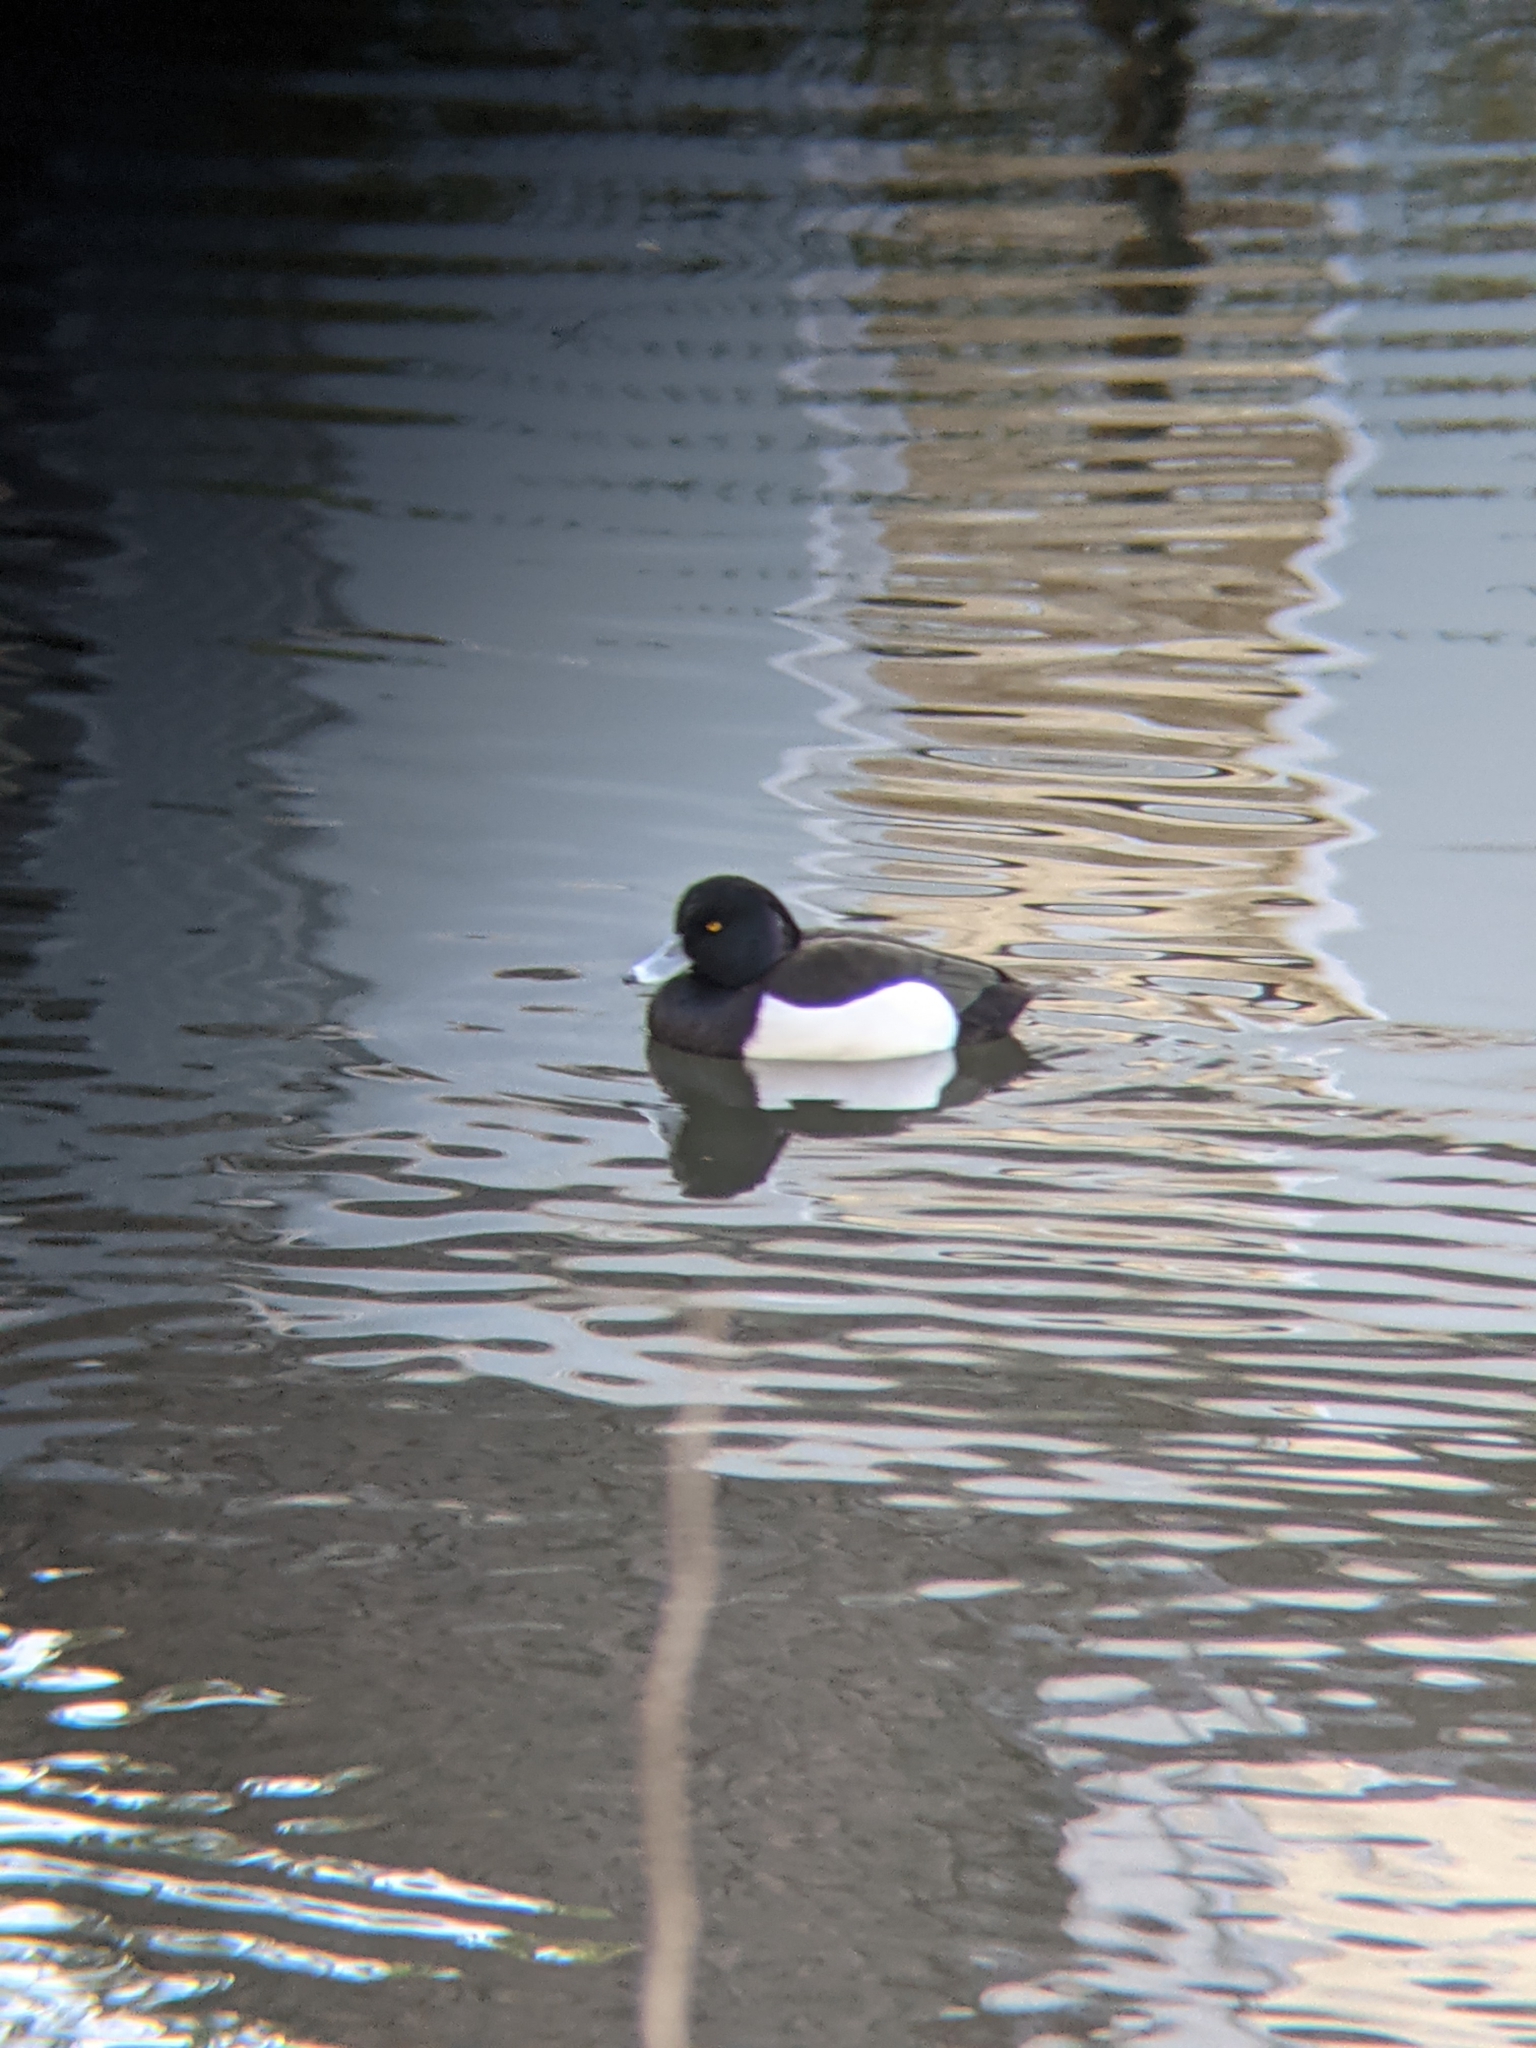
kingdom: Animalia
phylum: Chordata
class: Aves
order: Anseriformes
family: Anatidae
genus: Aythya
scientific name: Aythya fuligula
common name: Tufted duck
